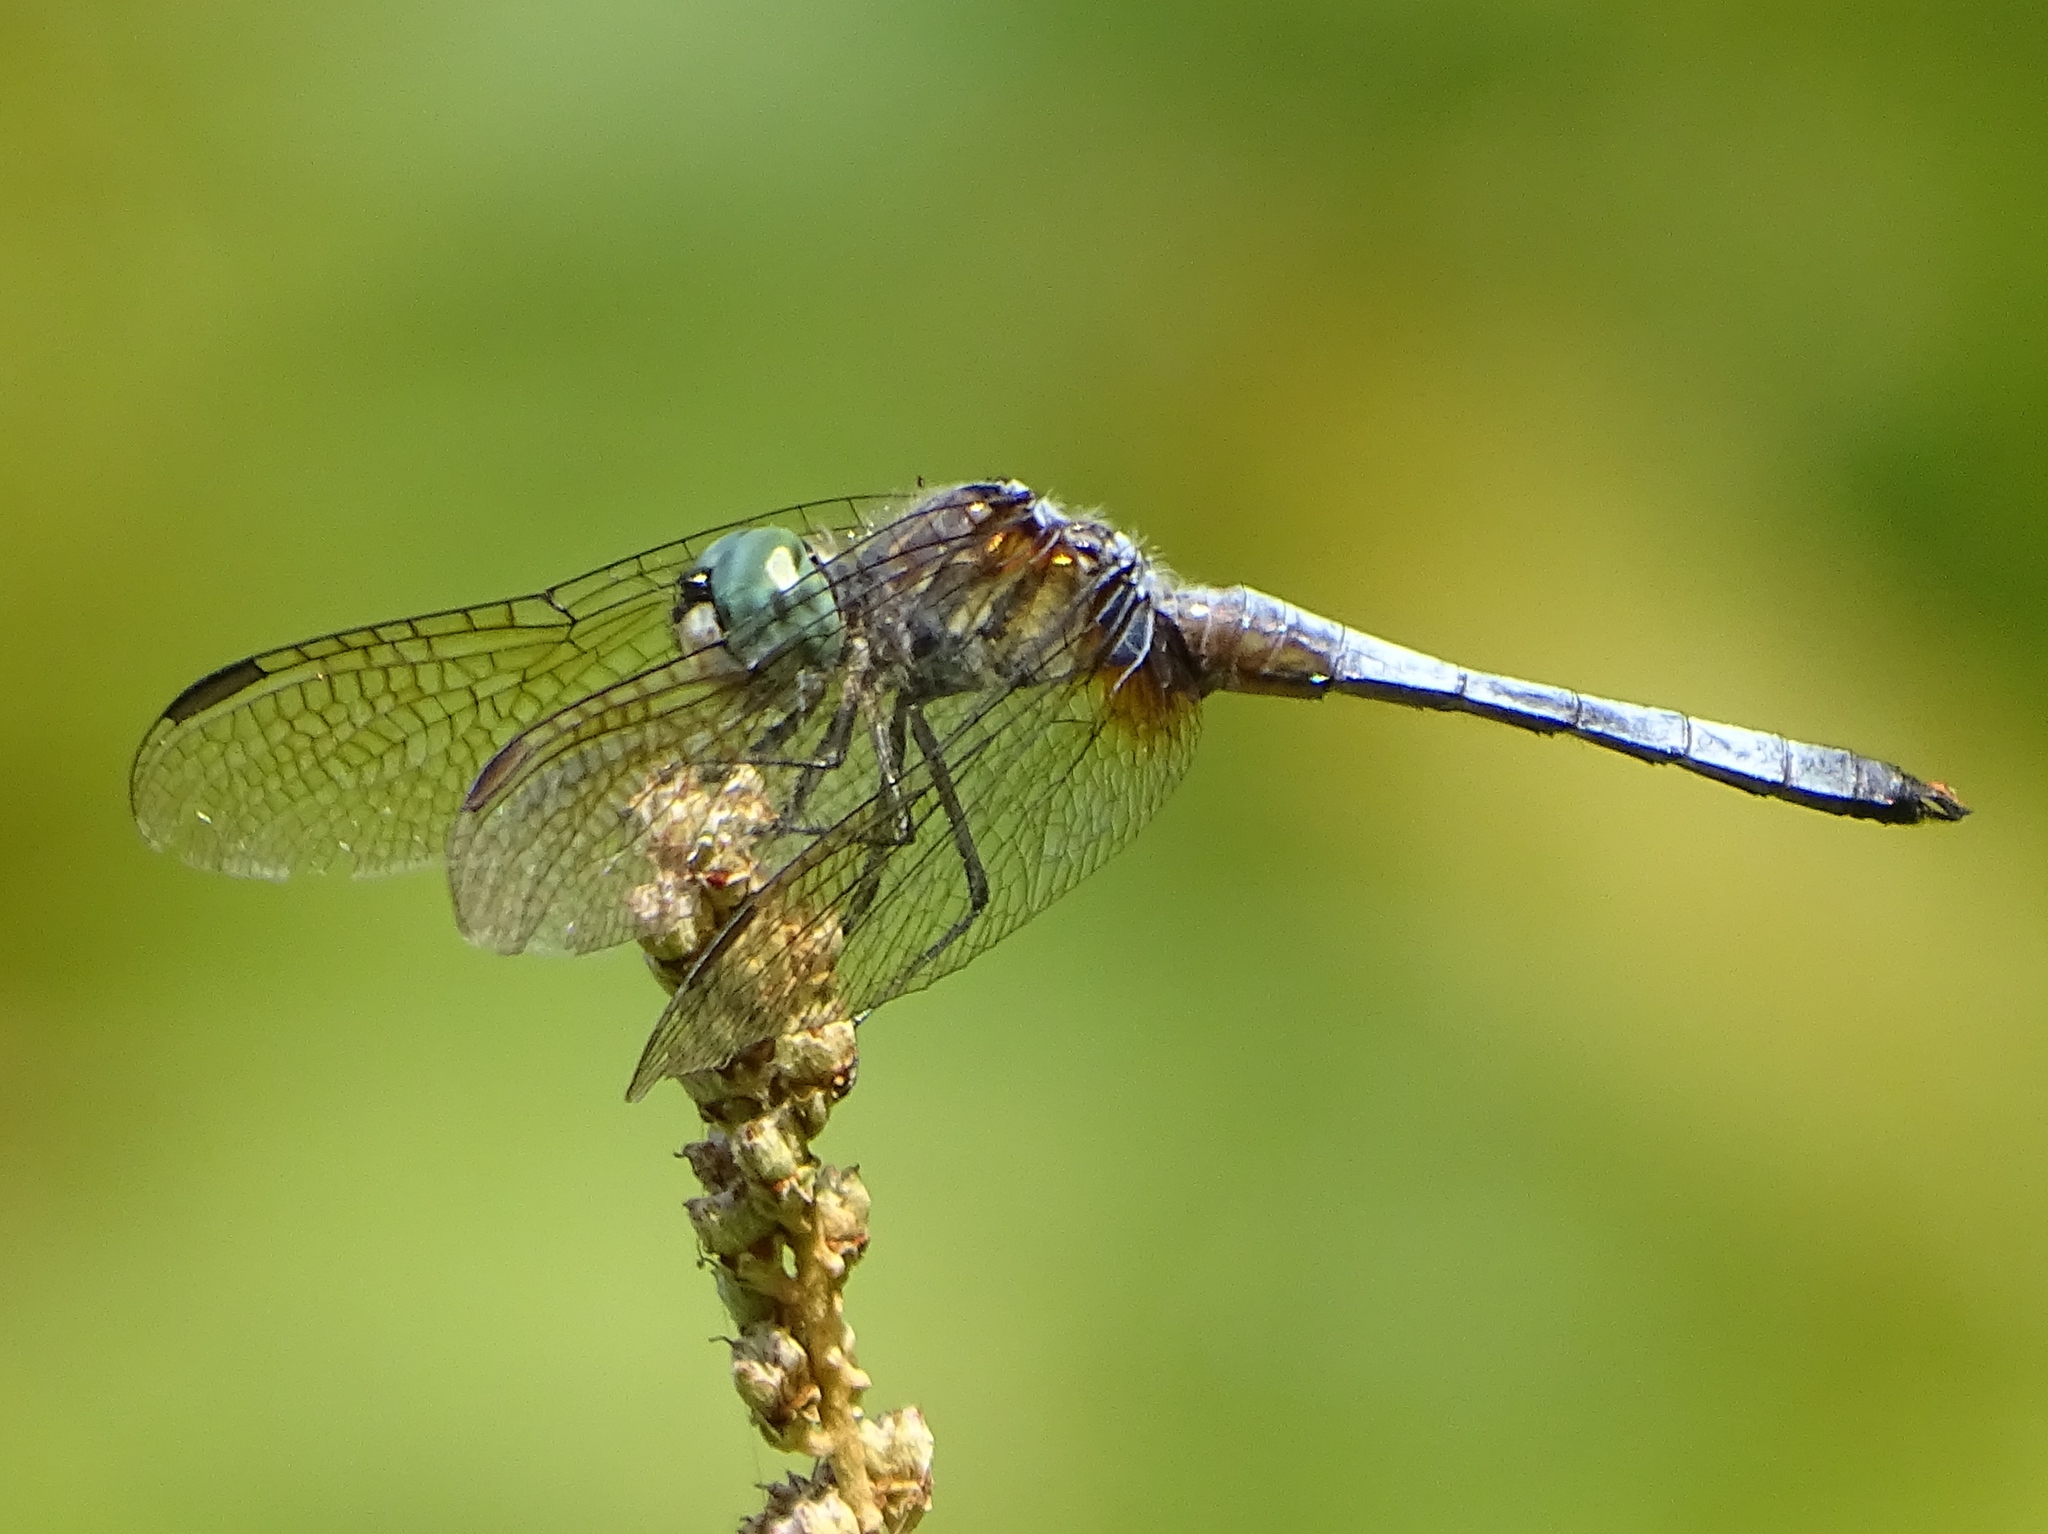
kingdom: Animalia
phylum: Arthropoda
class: Insecta
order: Odonata
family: Libellulidae
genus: Pachydiplax
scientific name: Pachydiplax longipennis
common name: Blue dasher
